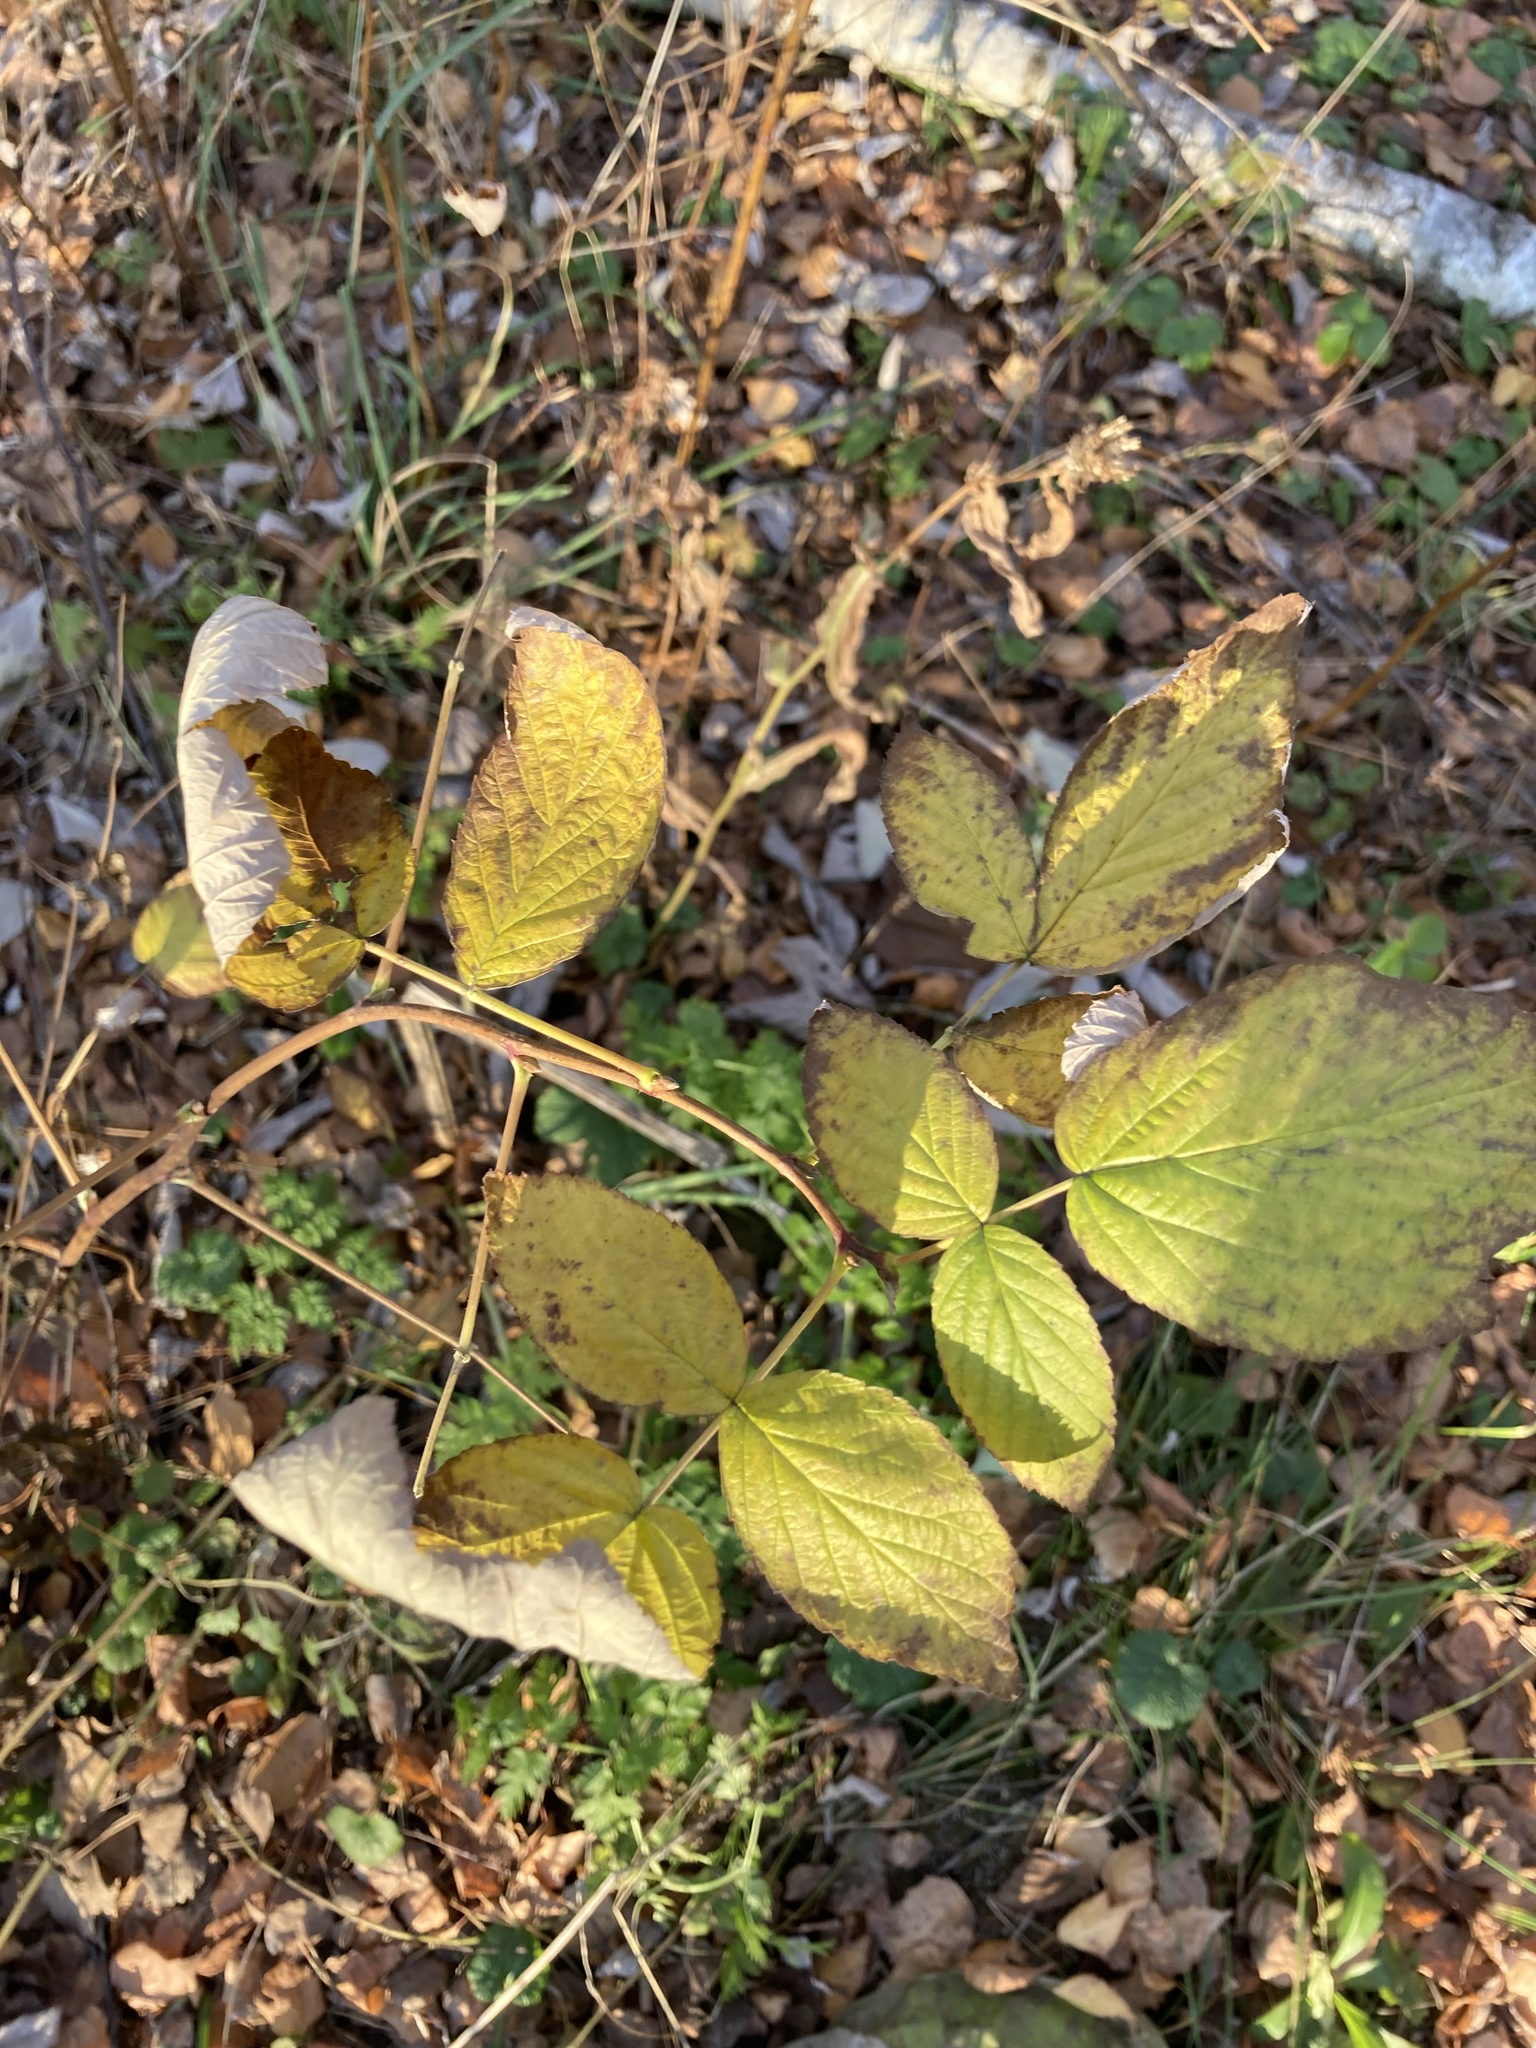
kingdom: Plantae
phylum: Tracheophyta
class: Magnoliopsida
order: Rosales
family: Rosaceae
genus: Rubus
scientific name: Rubus idaeus
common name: Raspberry
